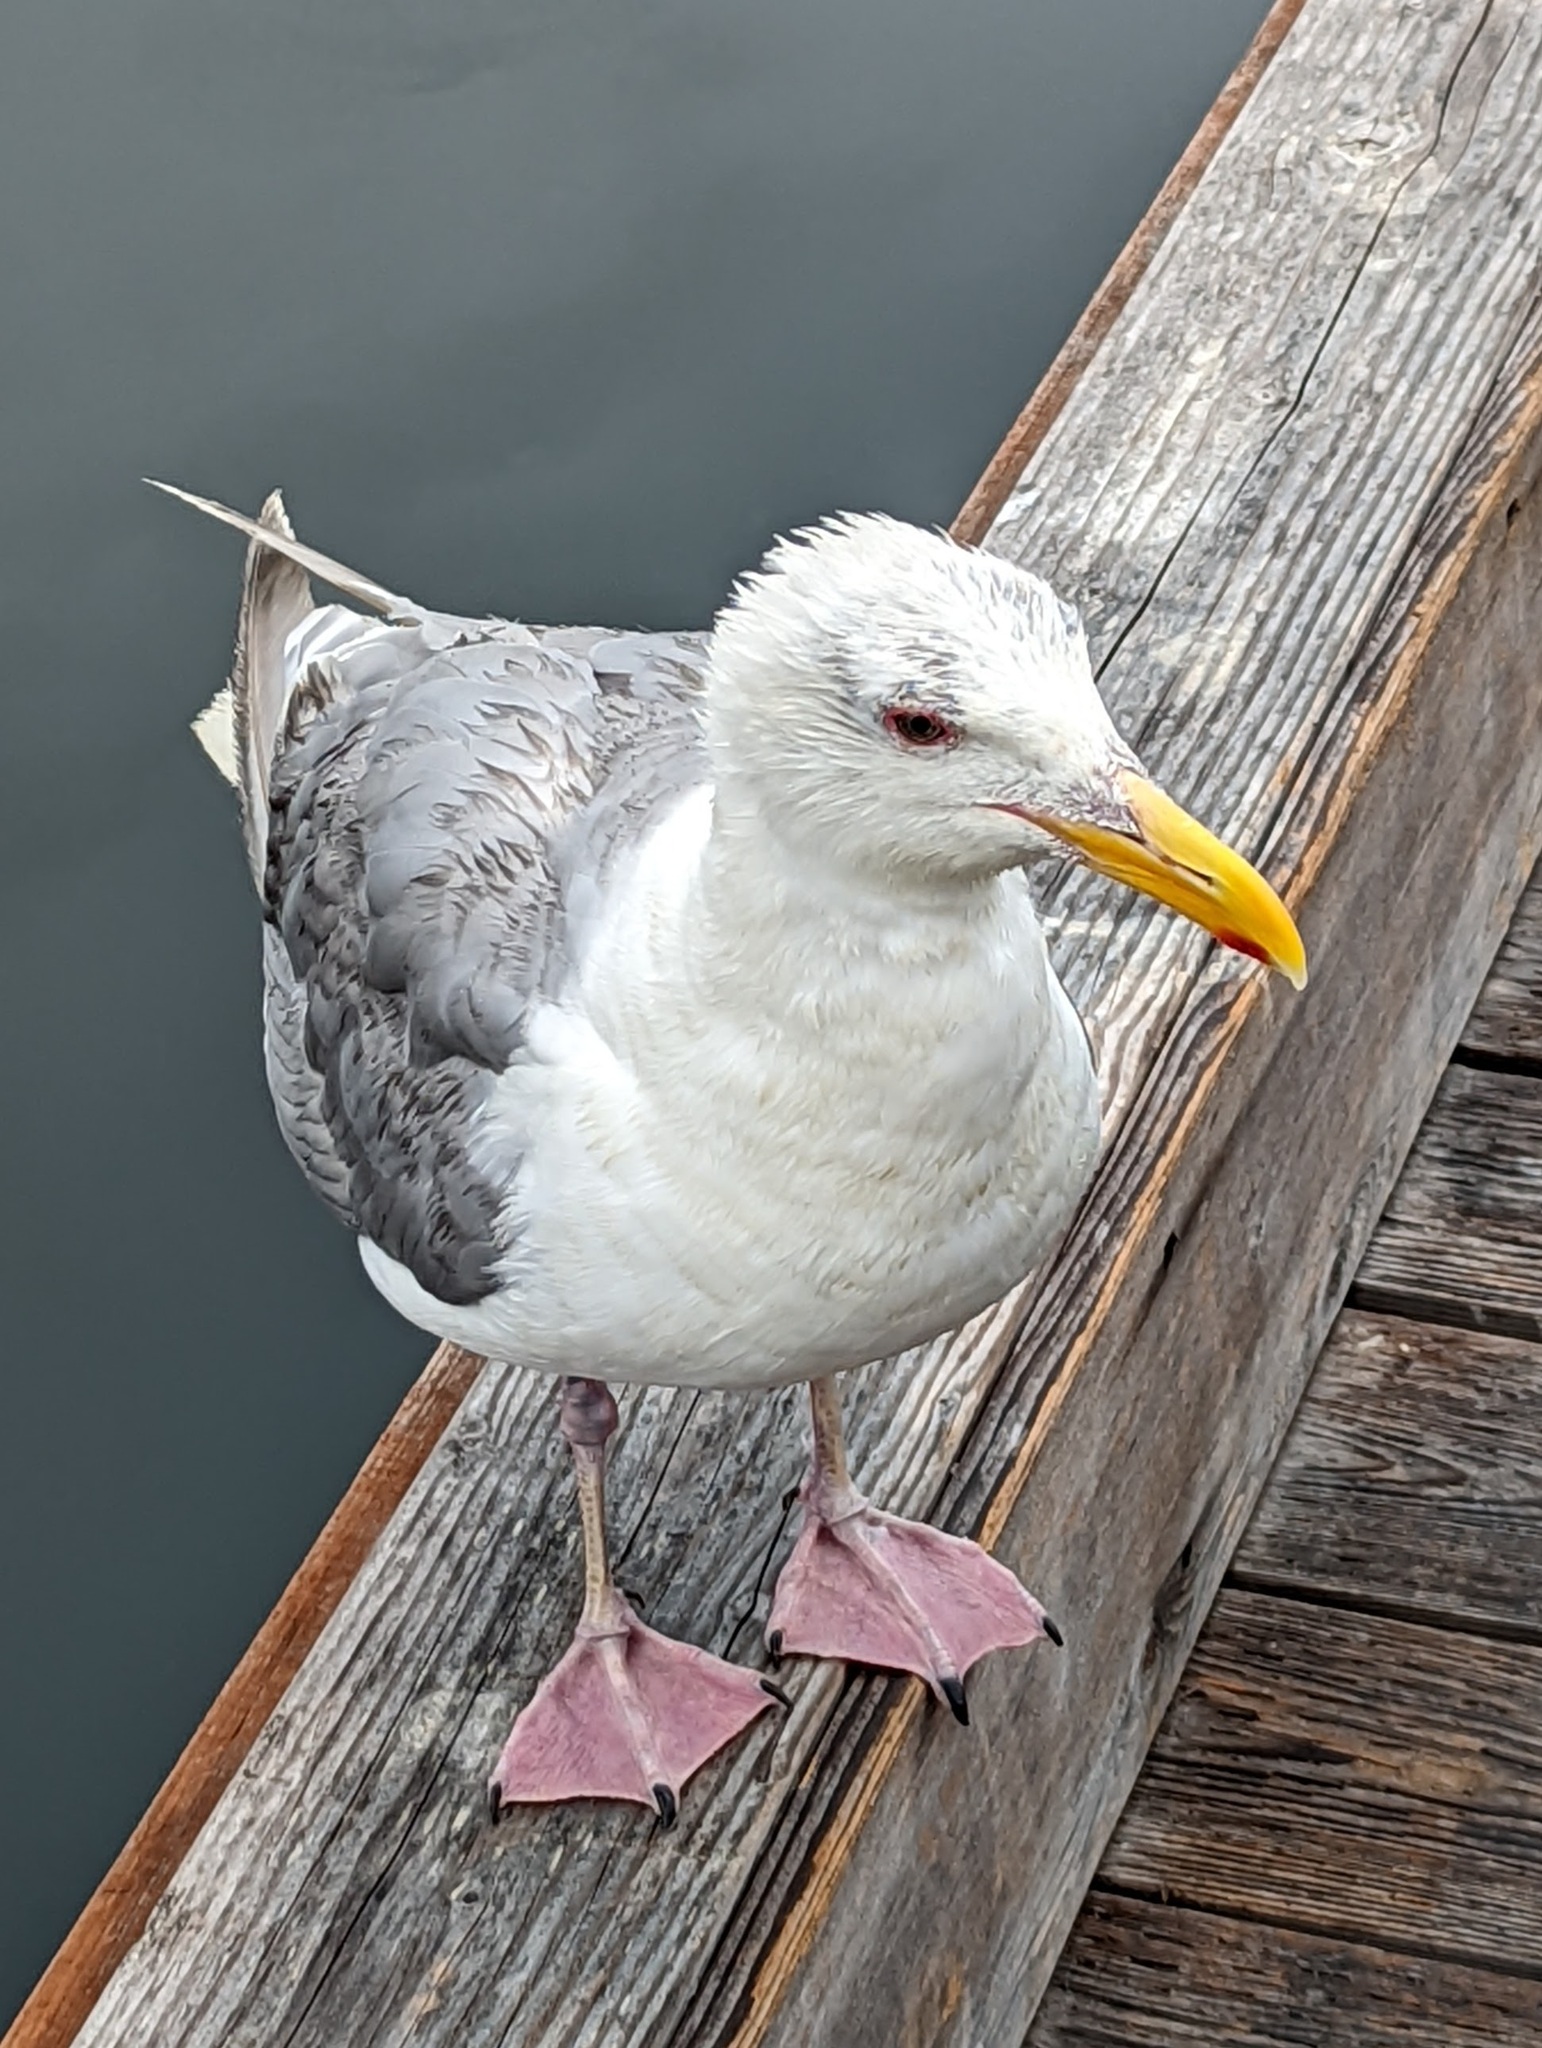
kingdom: Animalia
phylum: Chordata
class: Aves
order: Charadriiformes
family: Laridae
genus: Larus
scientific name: Larus glaucescens
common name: Glaucous-winged gull
